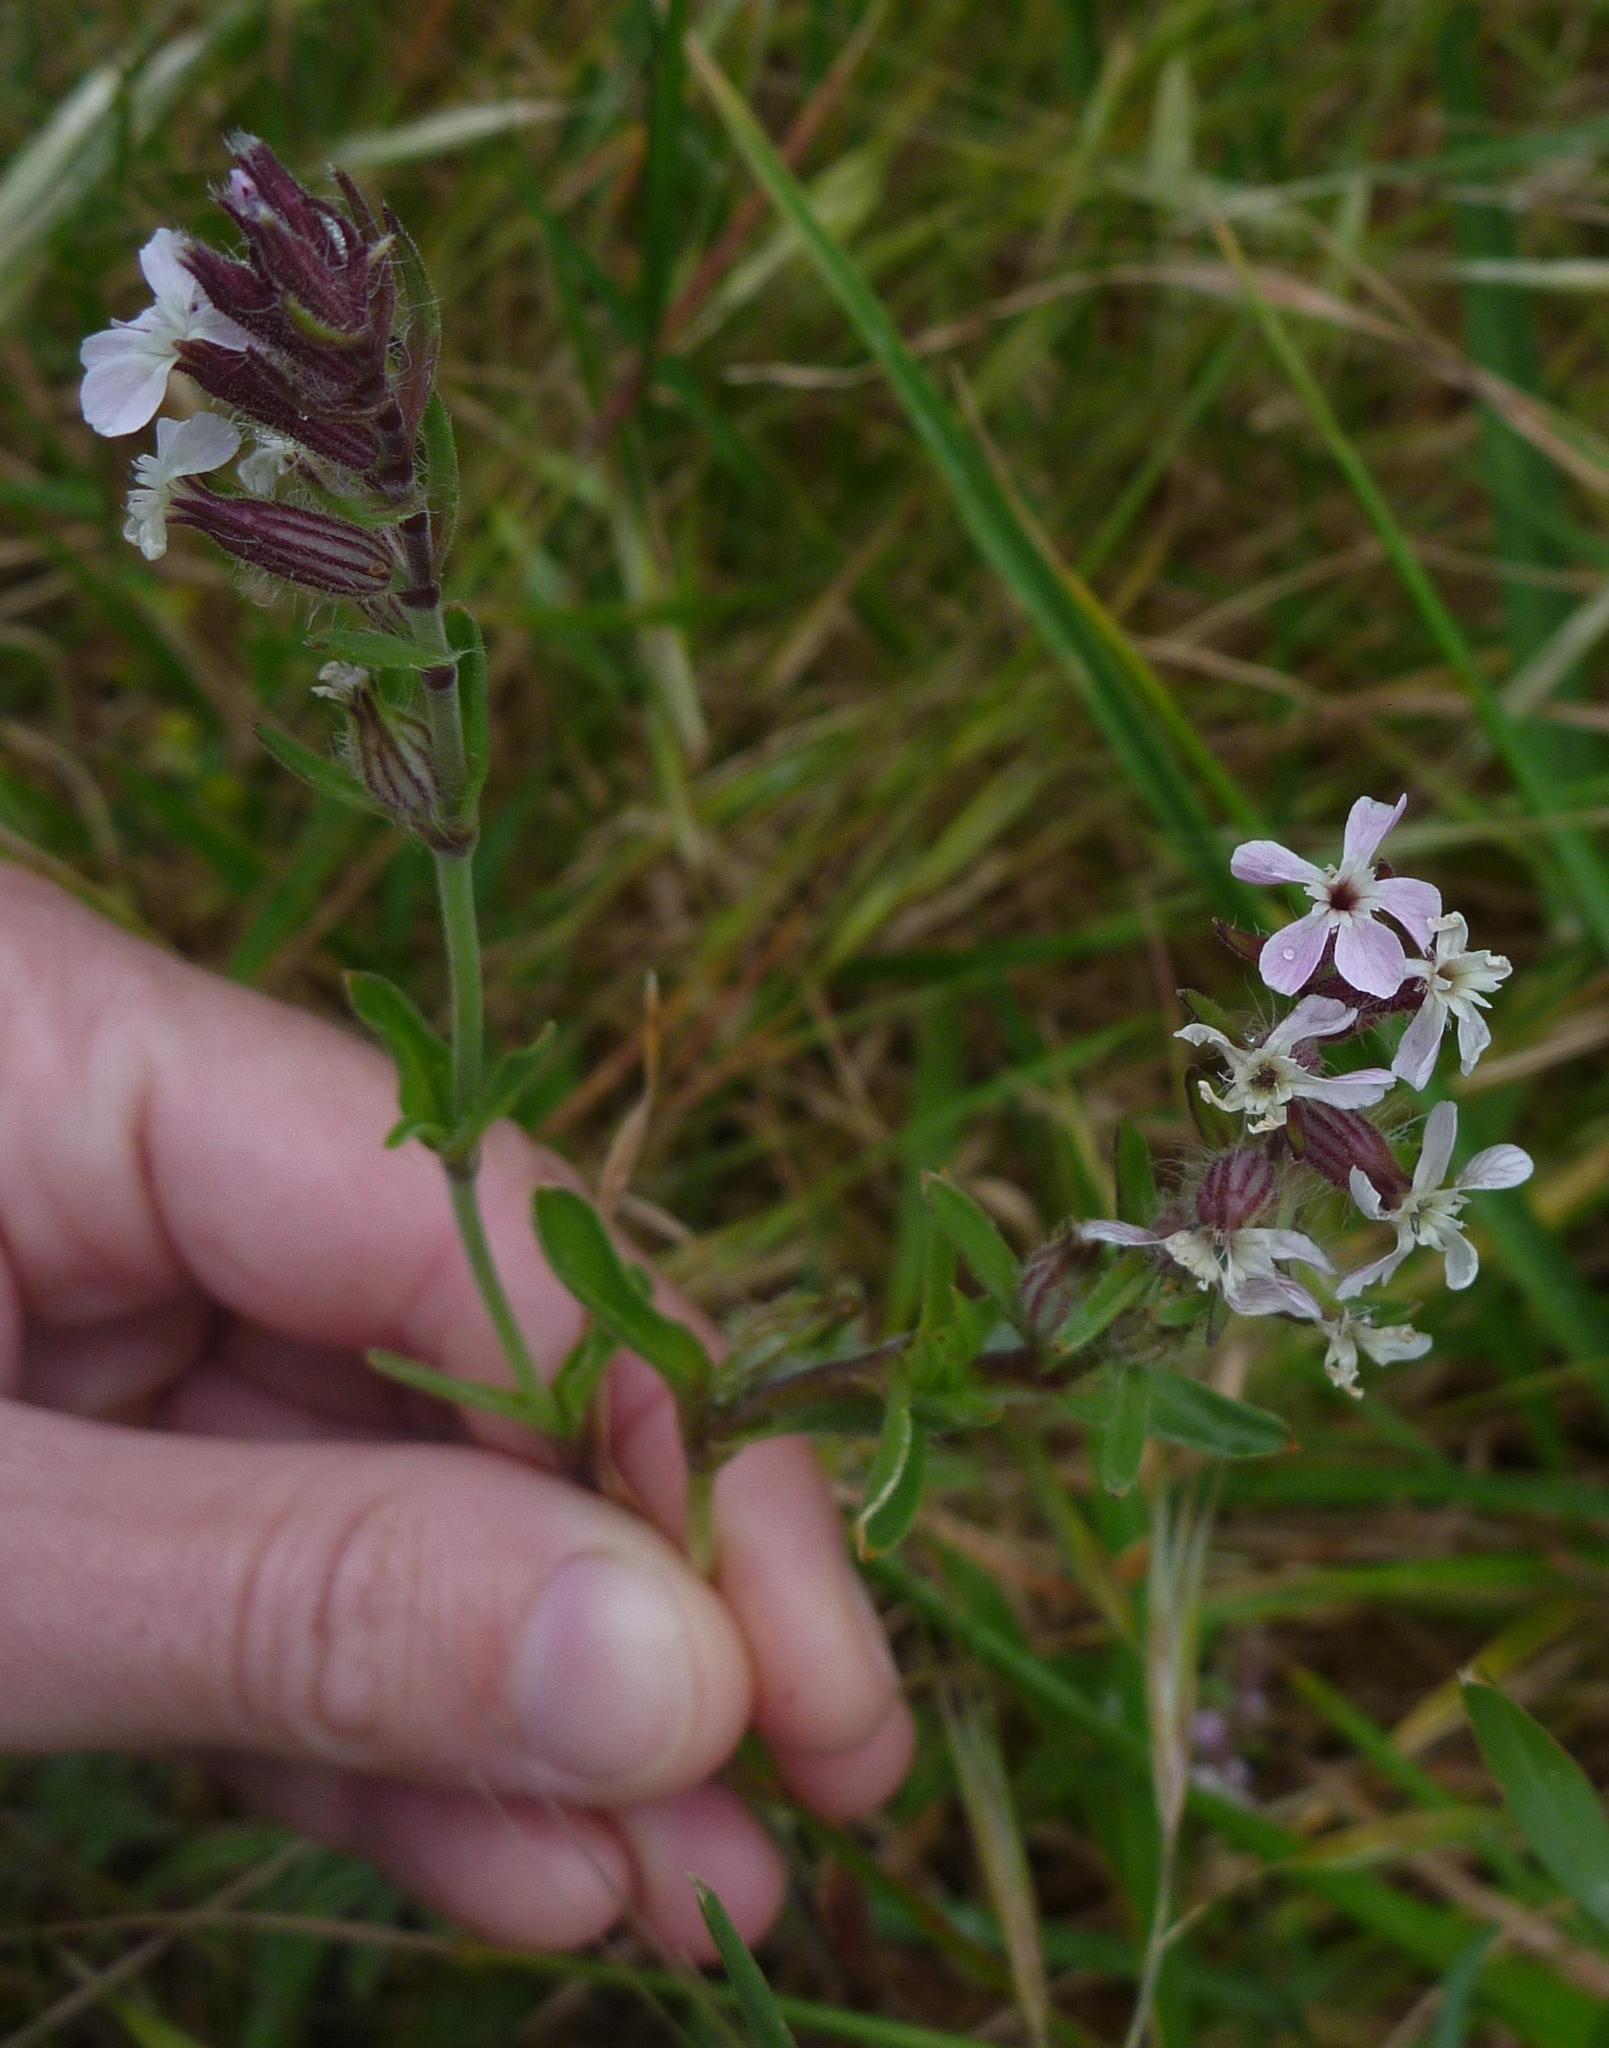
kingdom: Plantae
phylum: Tracheophyta
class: Magnoliopsida
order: Caryophyllales
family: Caryophyllaceae
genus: Silene
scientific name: Silene gallica
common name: Small-flowered catchfly
